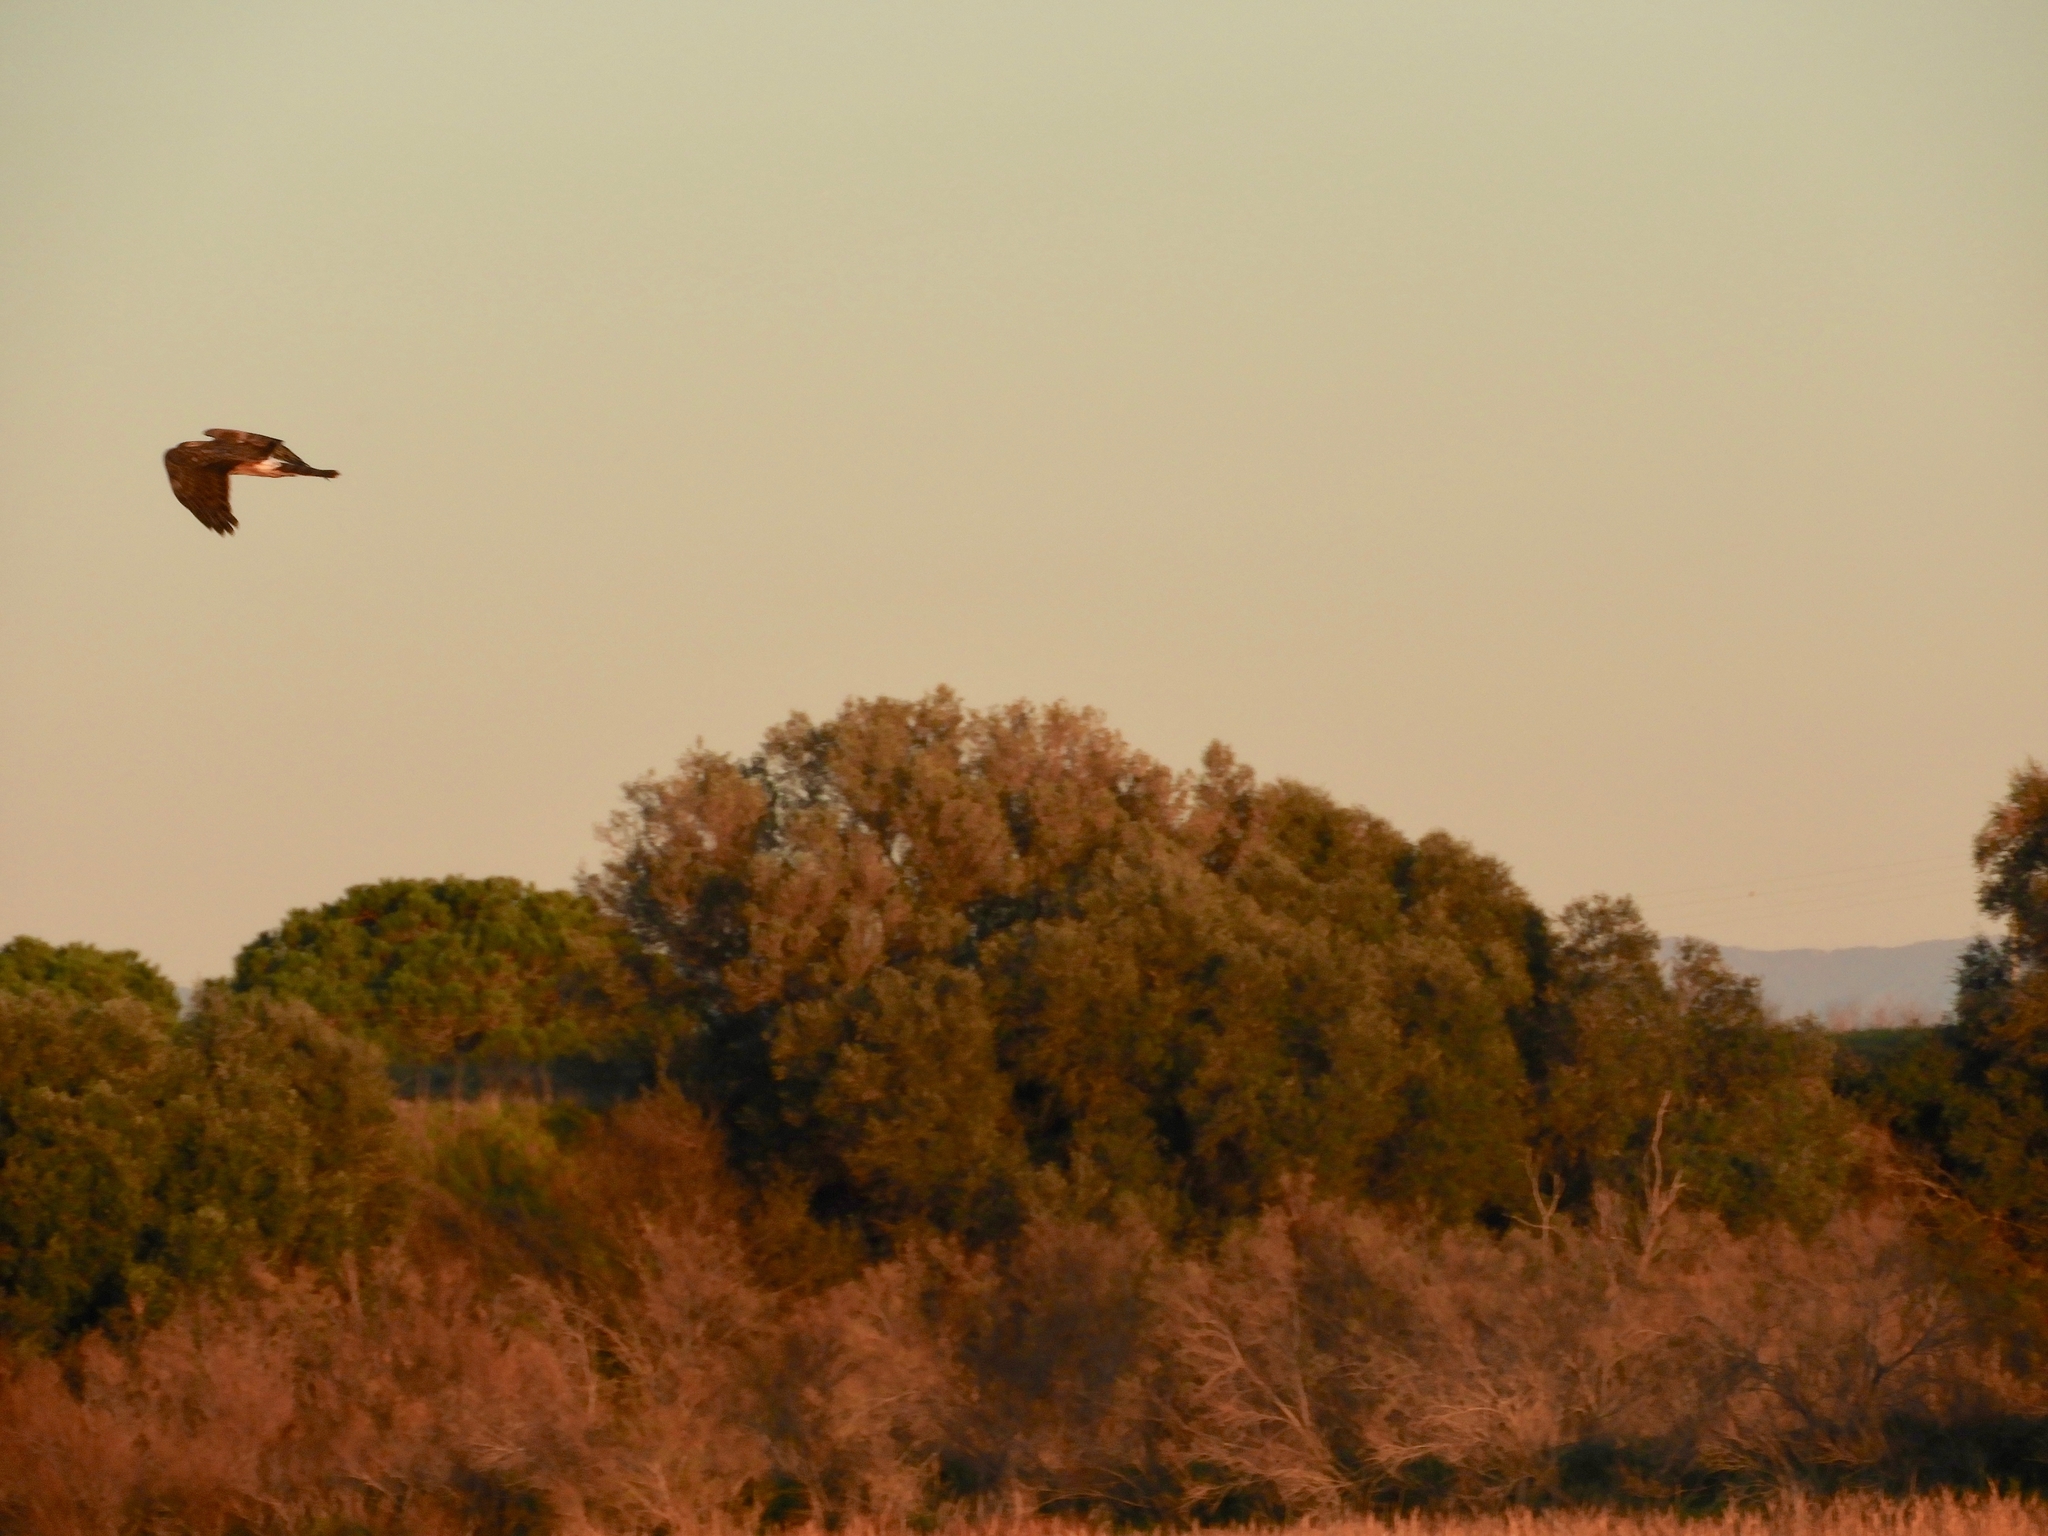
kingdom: Animalia
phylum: Chordata
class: Aves
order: Accipitriformes
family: Accipitridae
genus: Circus
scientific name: Circus cyaneus
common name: Hen harrier
